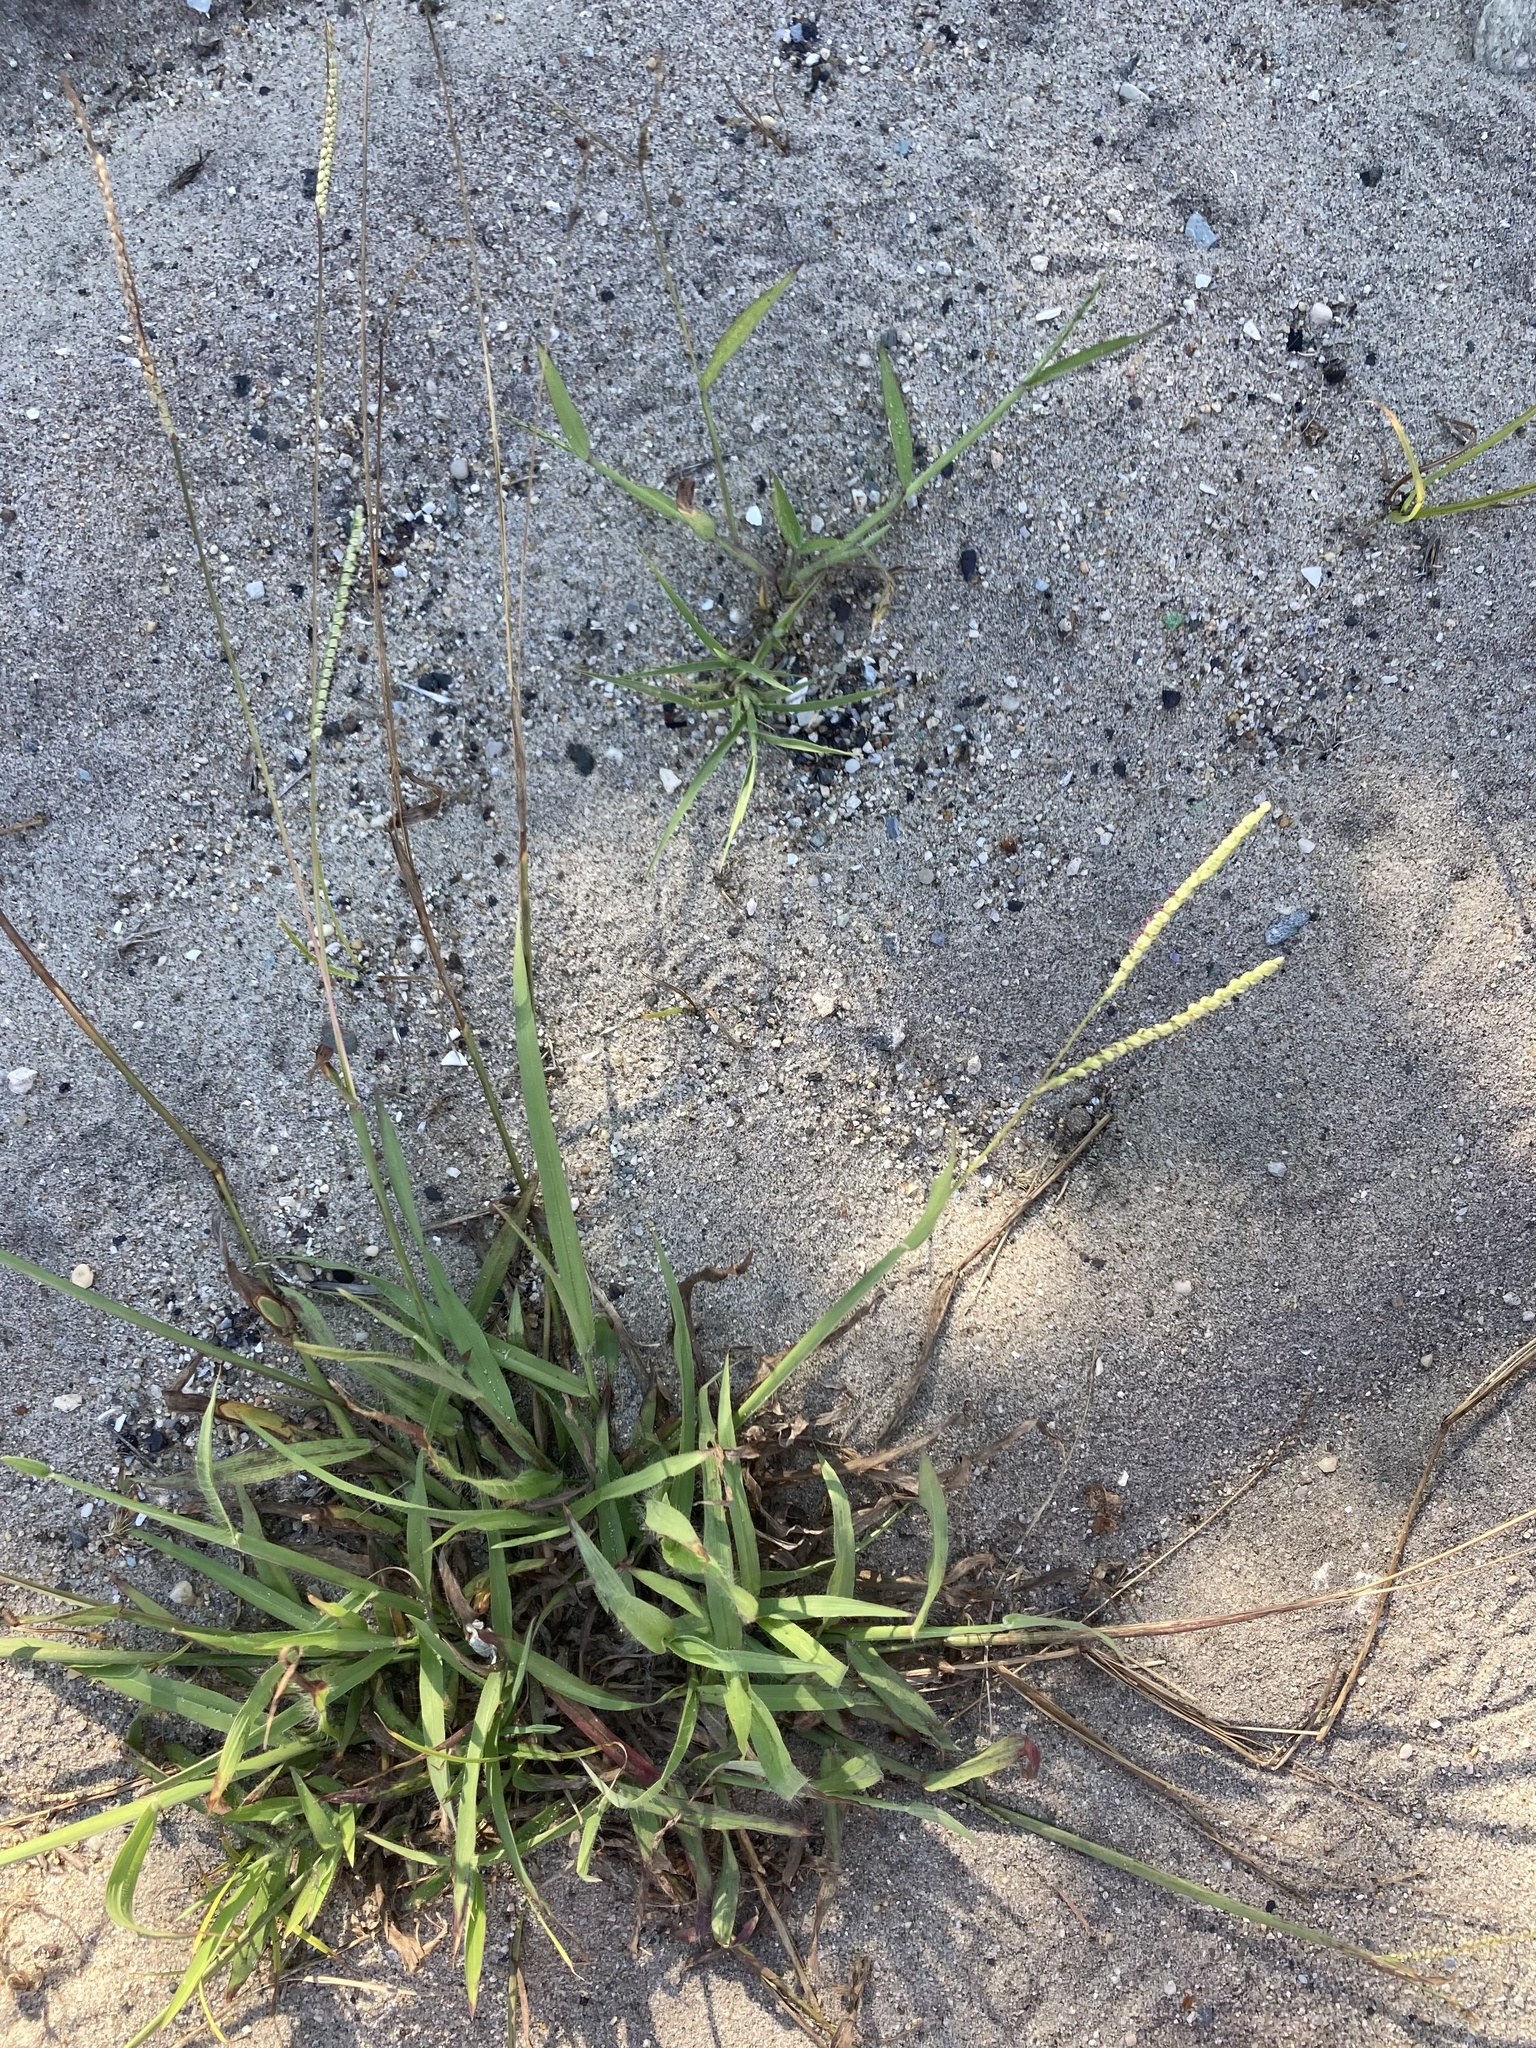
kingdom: Plantae
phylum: Tracheophyta
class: Liliopsida
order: Poales
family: Poaceae
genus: Paspalum
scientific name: Paspalum setaceum
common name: Slender paspalum
